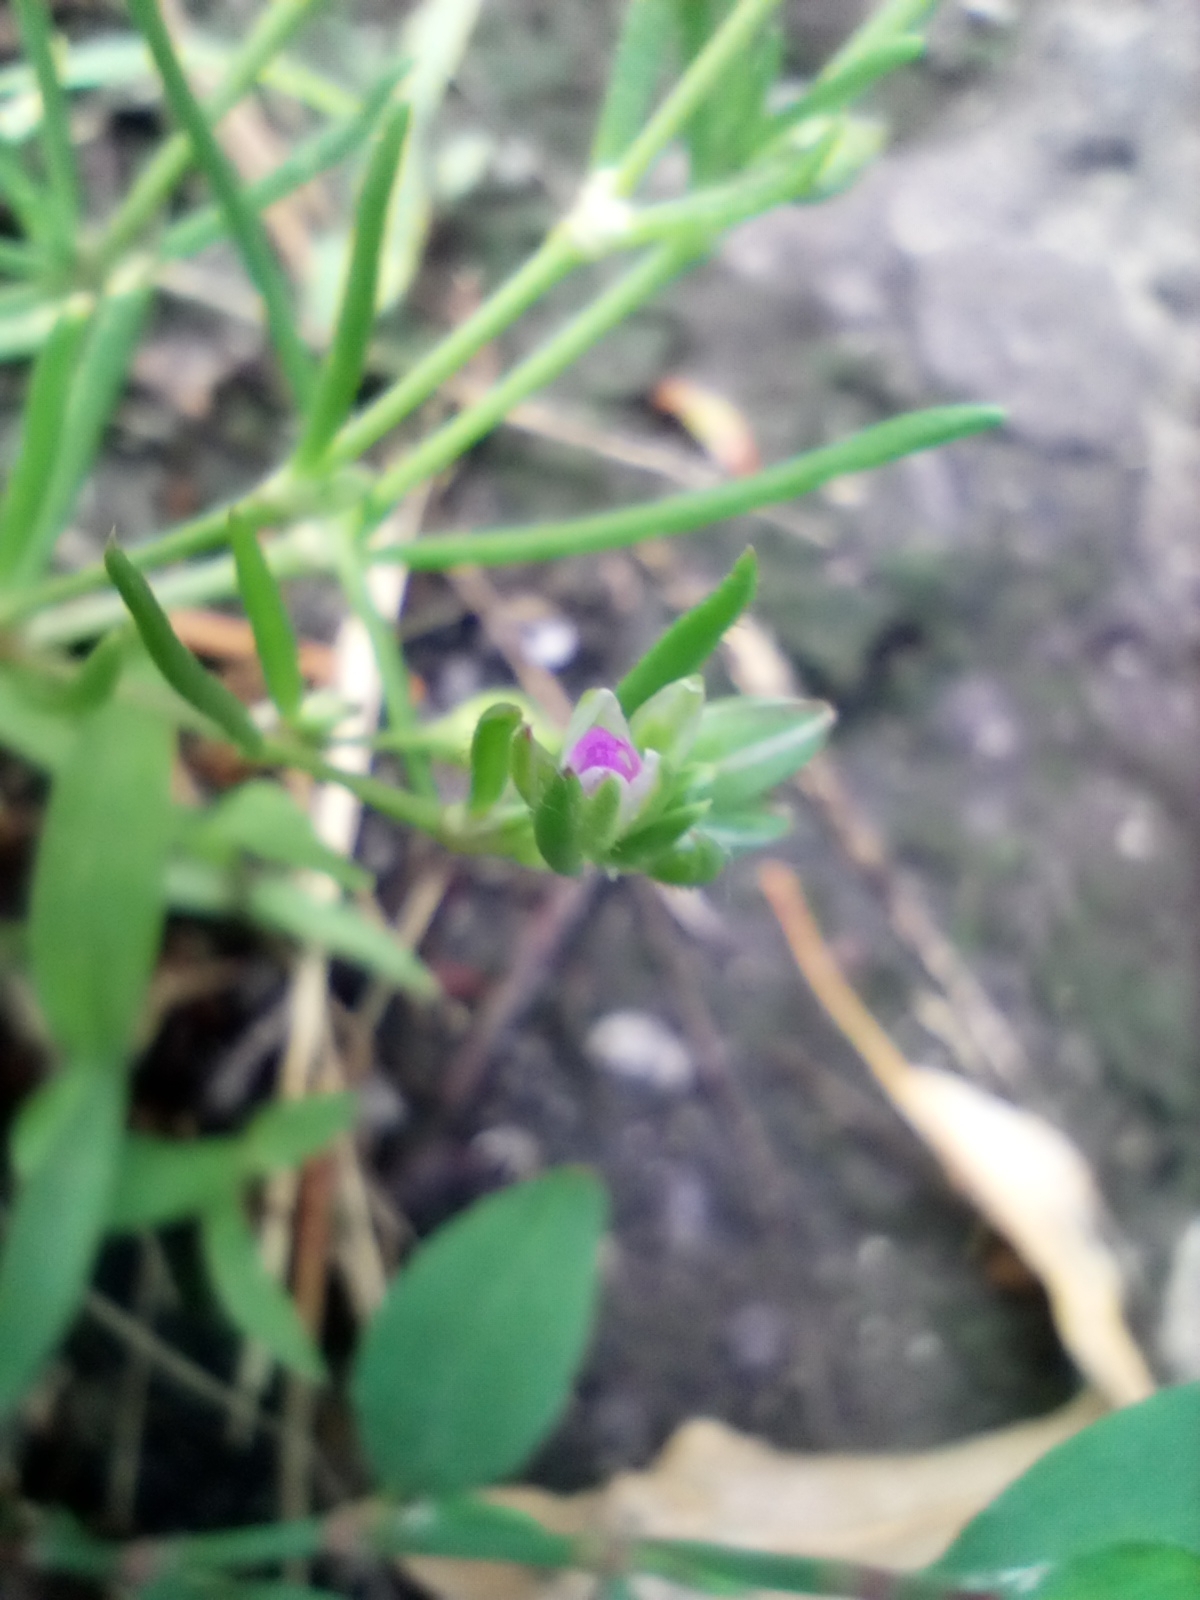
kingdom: Plantae
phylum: Tracheophyta
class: Magnoliopsida
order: Caryophyllales
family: Caryophyllaceae
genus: Spergularia
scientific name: Spergularia marina
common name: Lesser sea-spurrey
